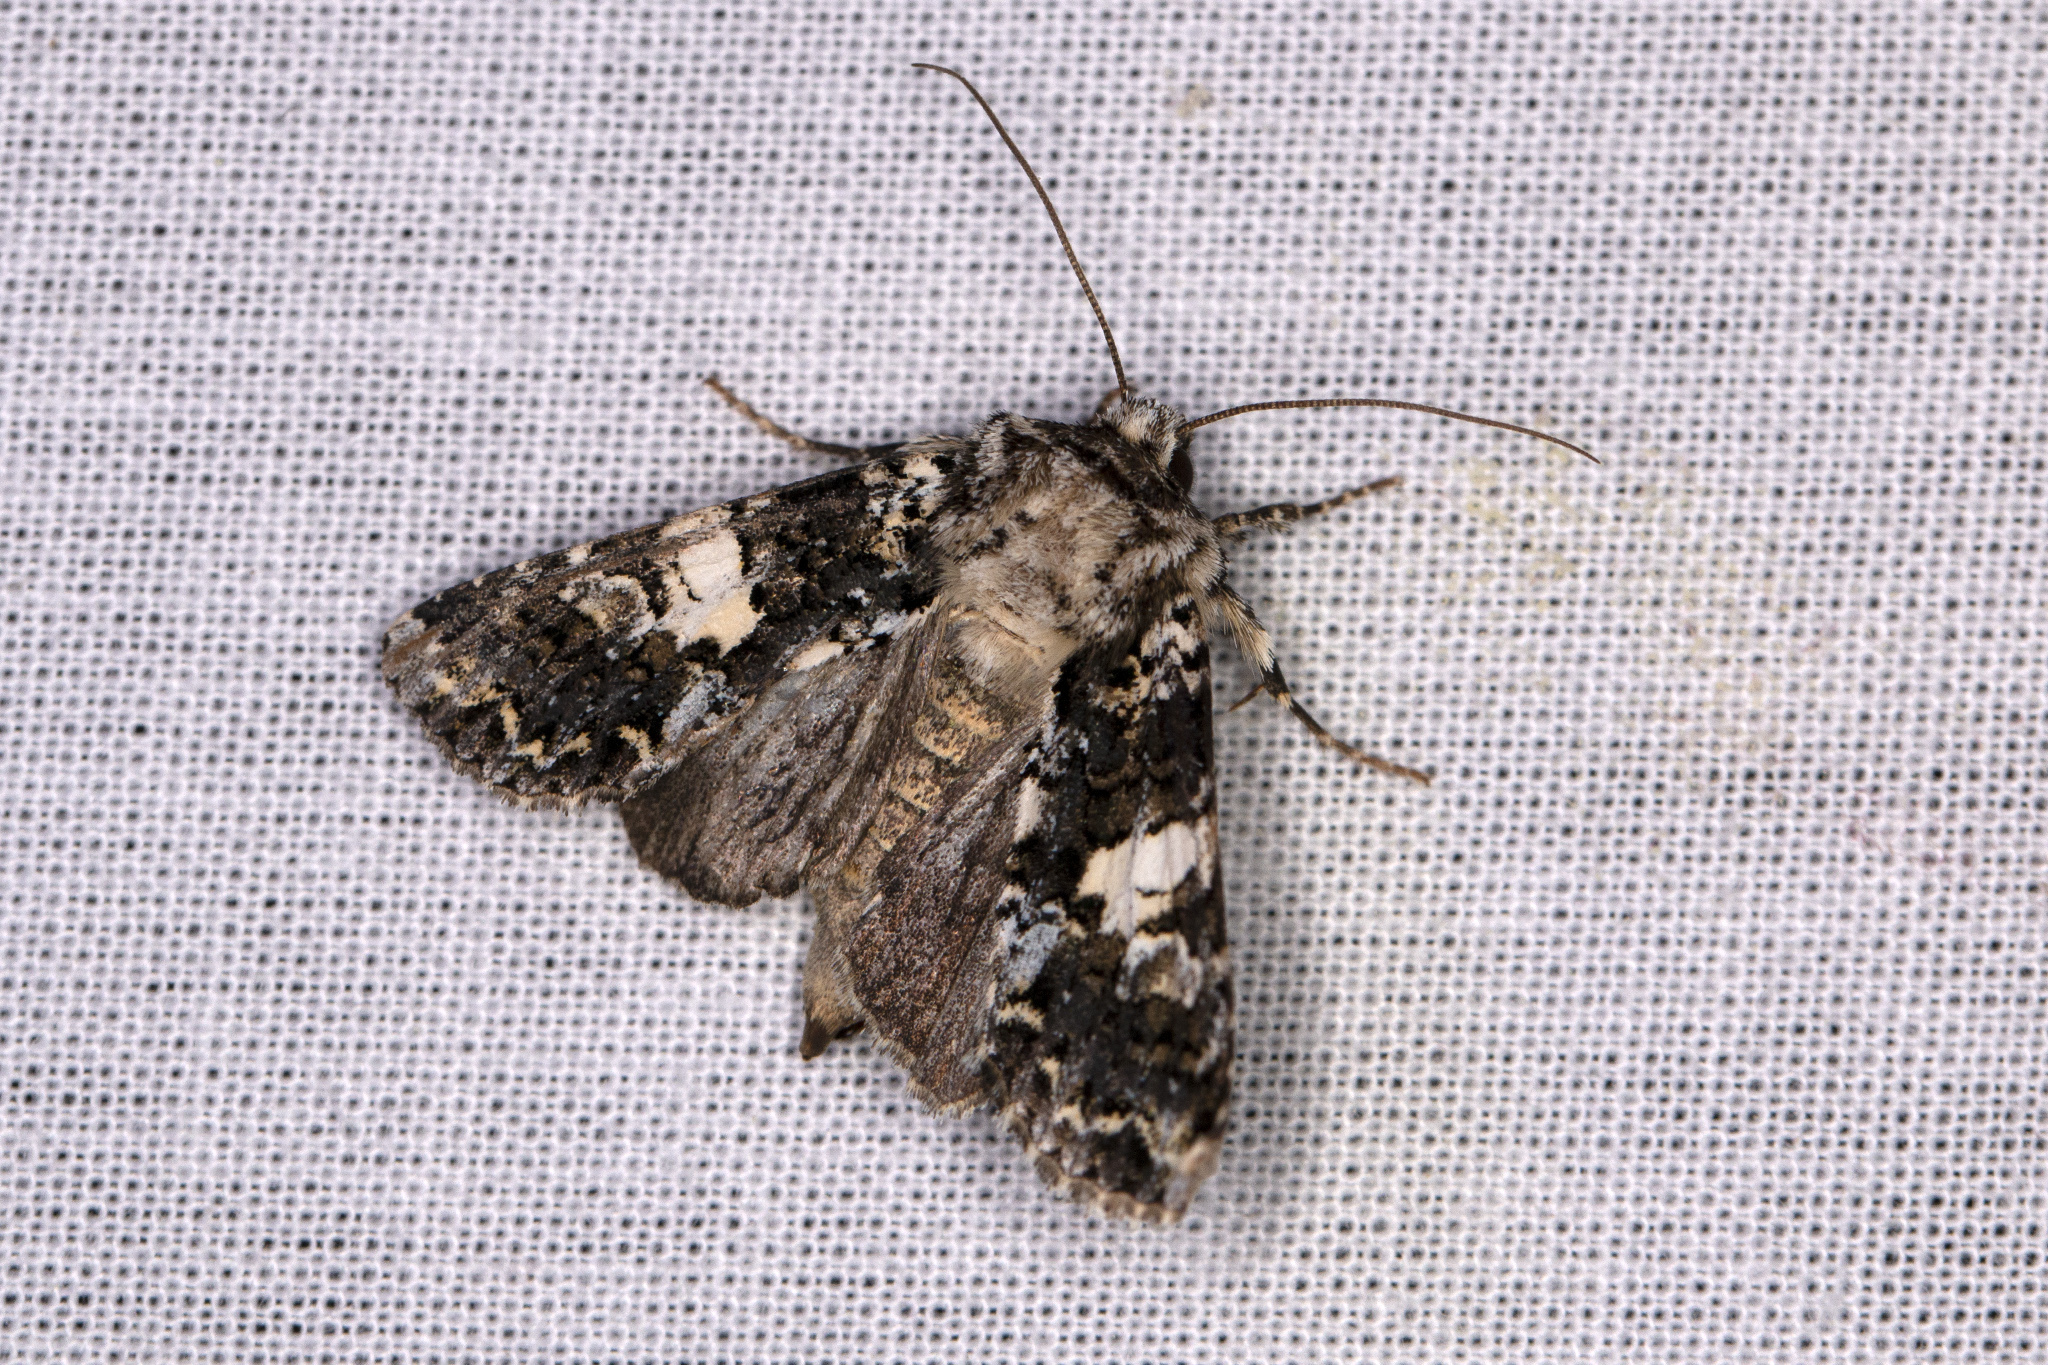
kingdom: Animalia
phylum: Arthropoda
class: Insecta
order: Lepidoptera
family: Noctuidae
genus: Hadena
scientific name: Hadena confusa
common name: Marbled coronet
